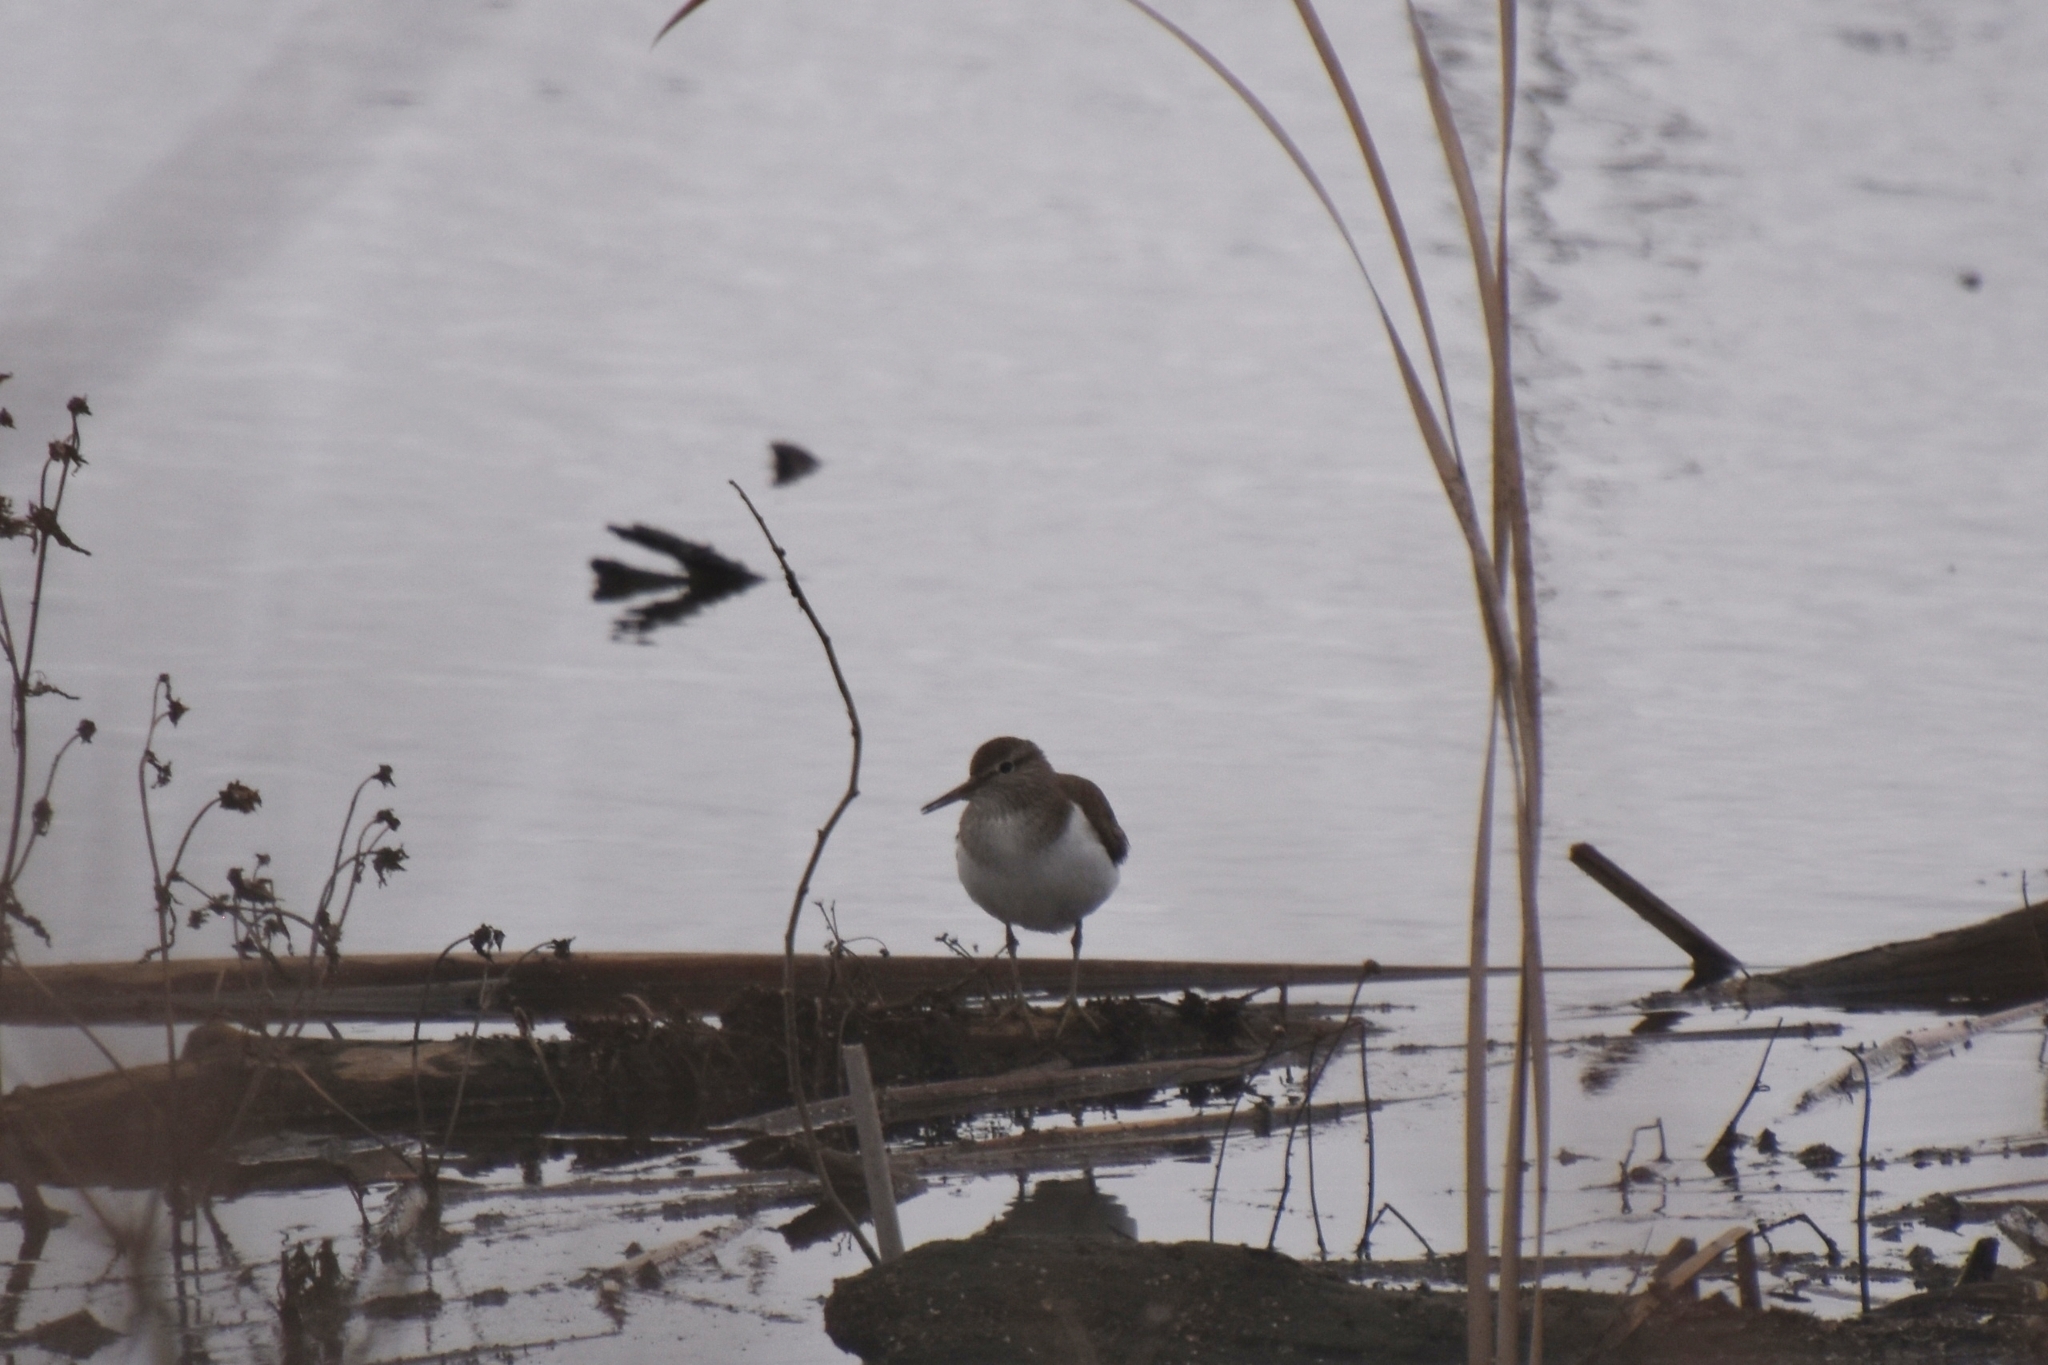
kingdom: Animalia
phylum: Chordata
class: Aves
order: Charadriiformes
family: Scolopacidae
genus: Actitis
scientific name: Actitis hypoleucos
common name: Common sandpiper
